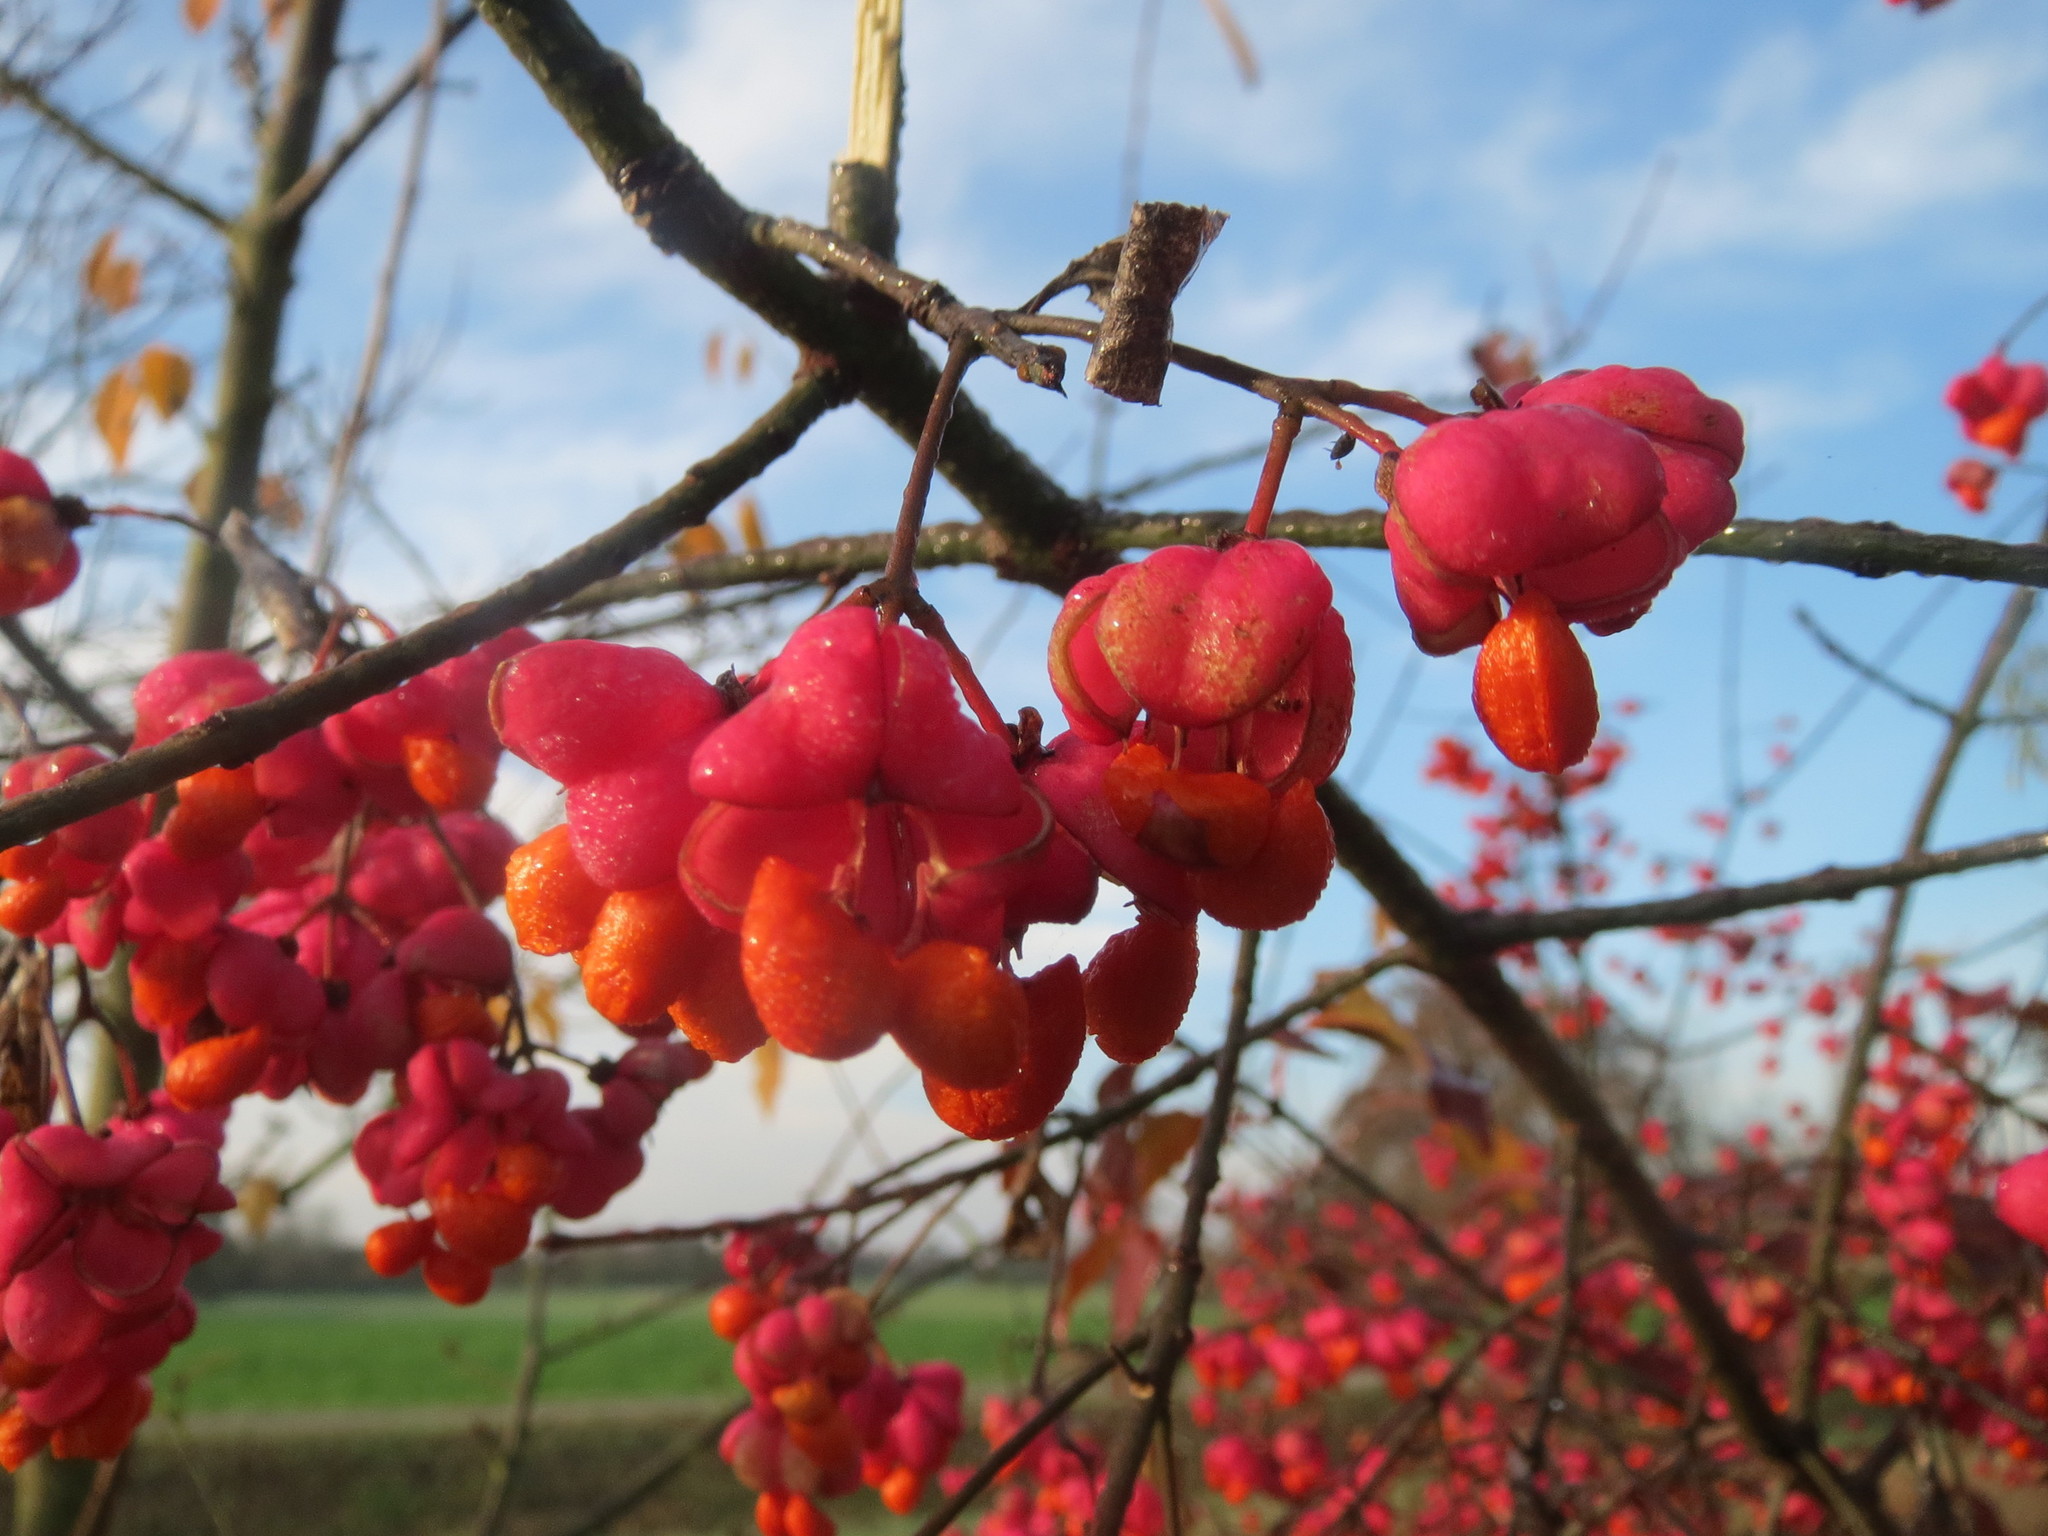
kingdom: Plantae
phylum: Tracheophyta
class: Magnoliopsida
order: Celastrales
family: Celastraceae
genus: Euonymus
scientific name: Euonymus europaeus
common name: Spindle
